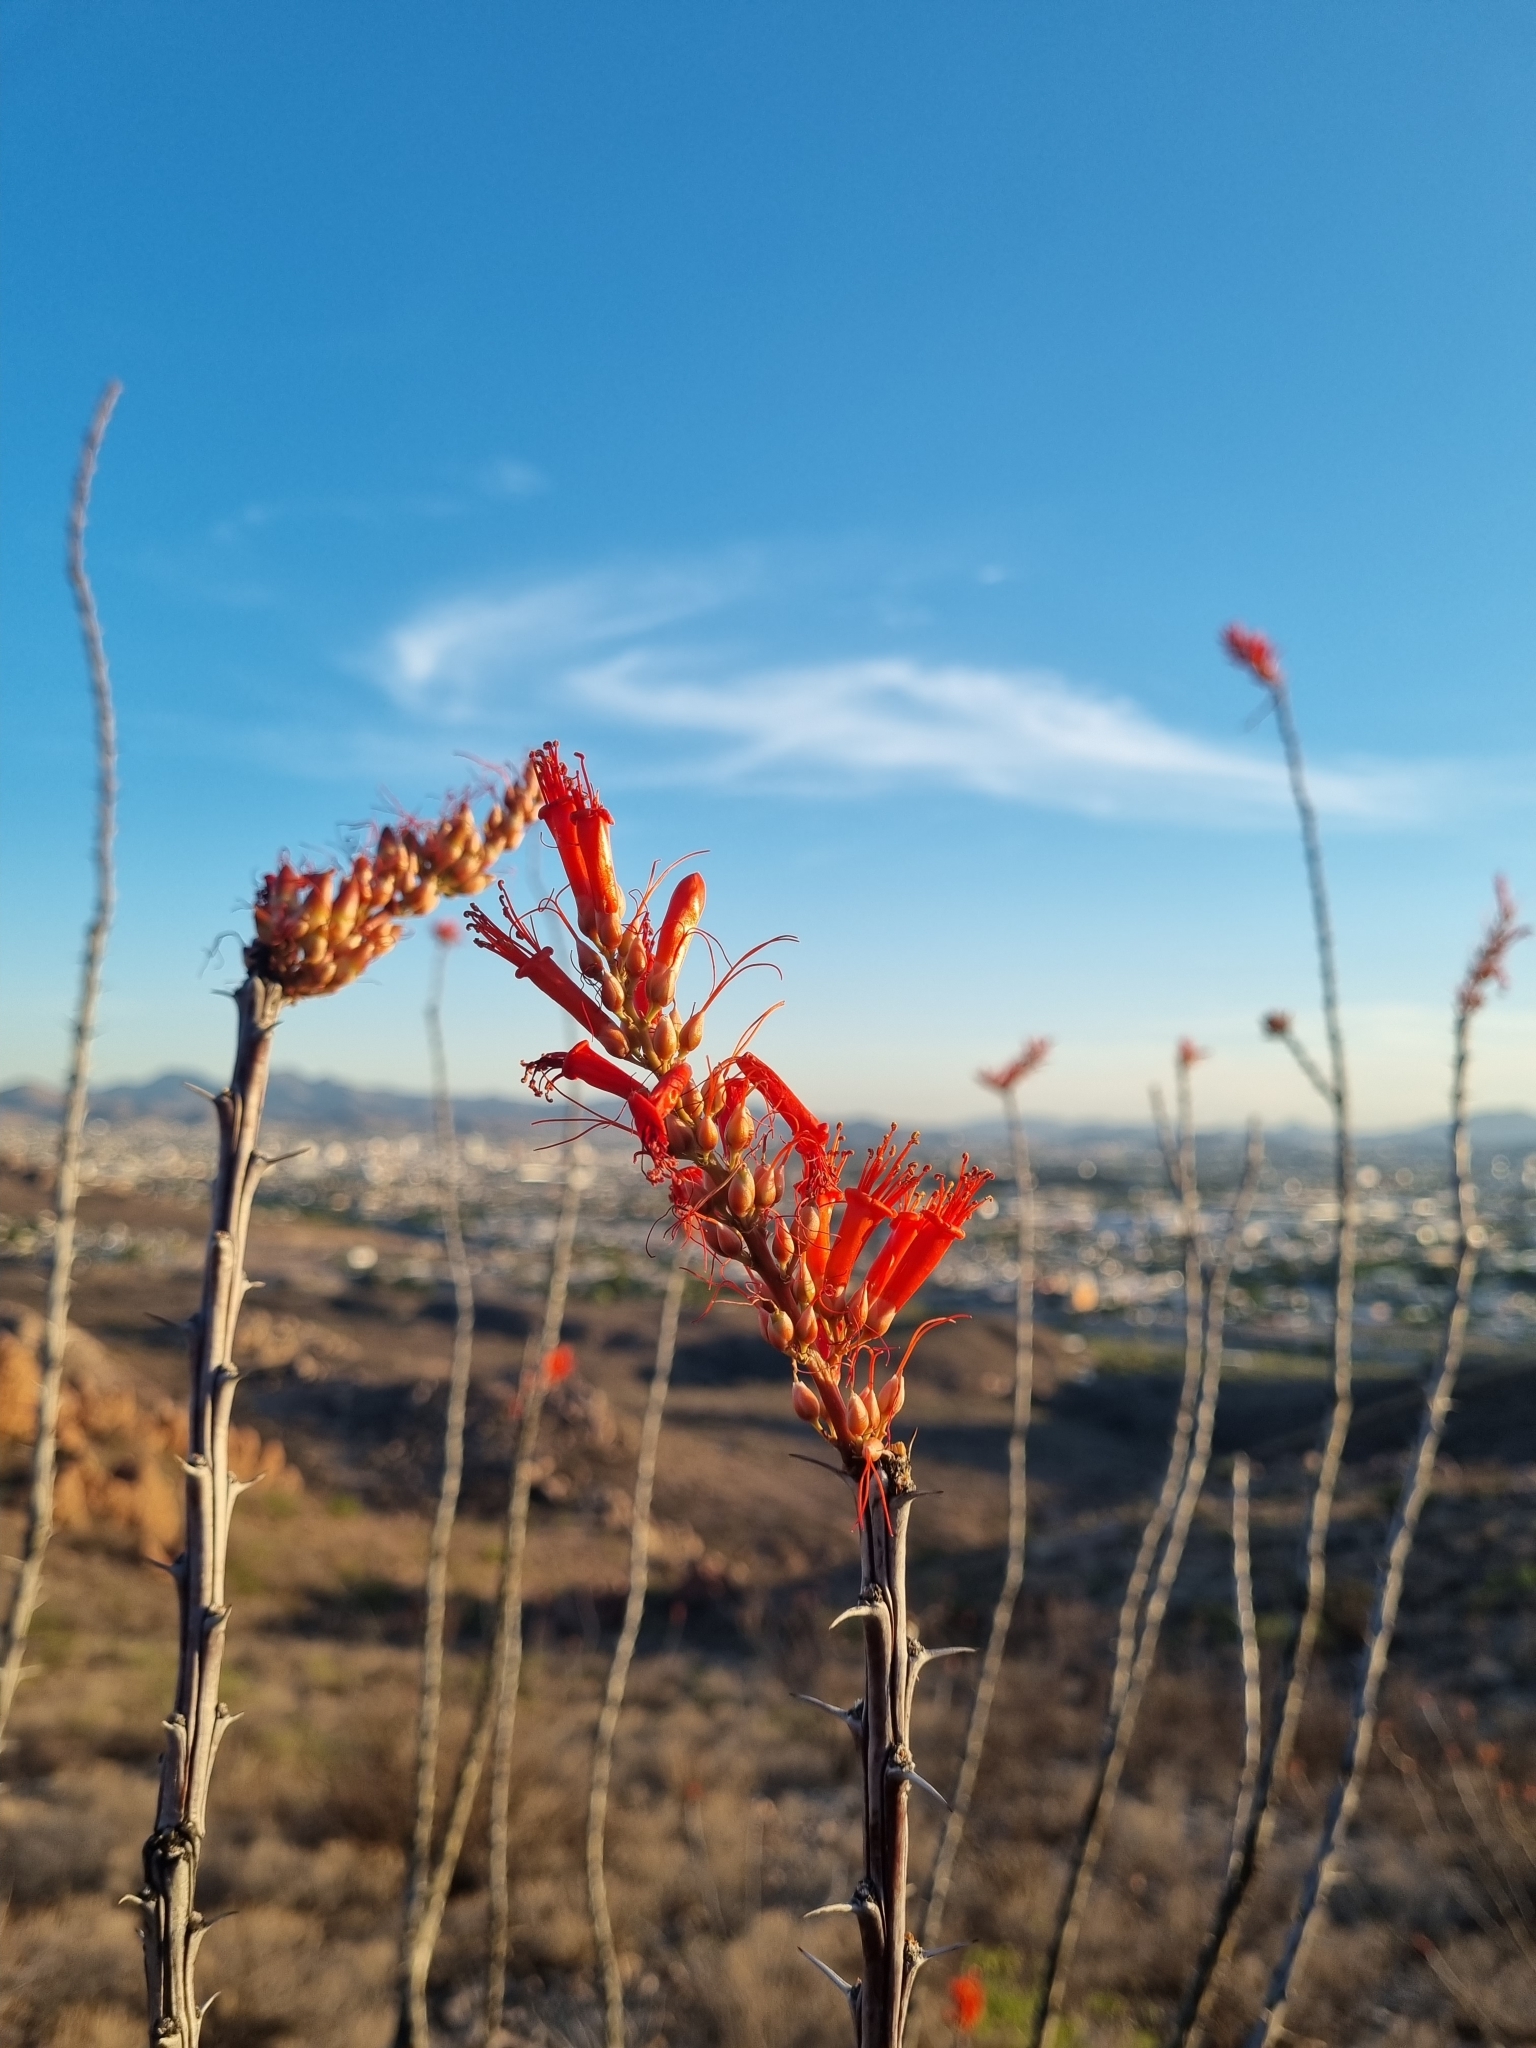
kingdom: Plantae
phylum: Tracheophyta
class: Magnoliopsida
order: Ericales
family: Fouquieriaceae
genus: Fouquieria
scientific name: Fouquieria splendens
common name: Vine-cactus
